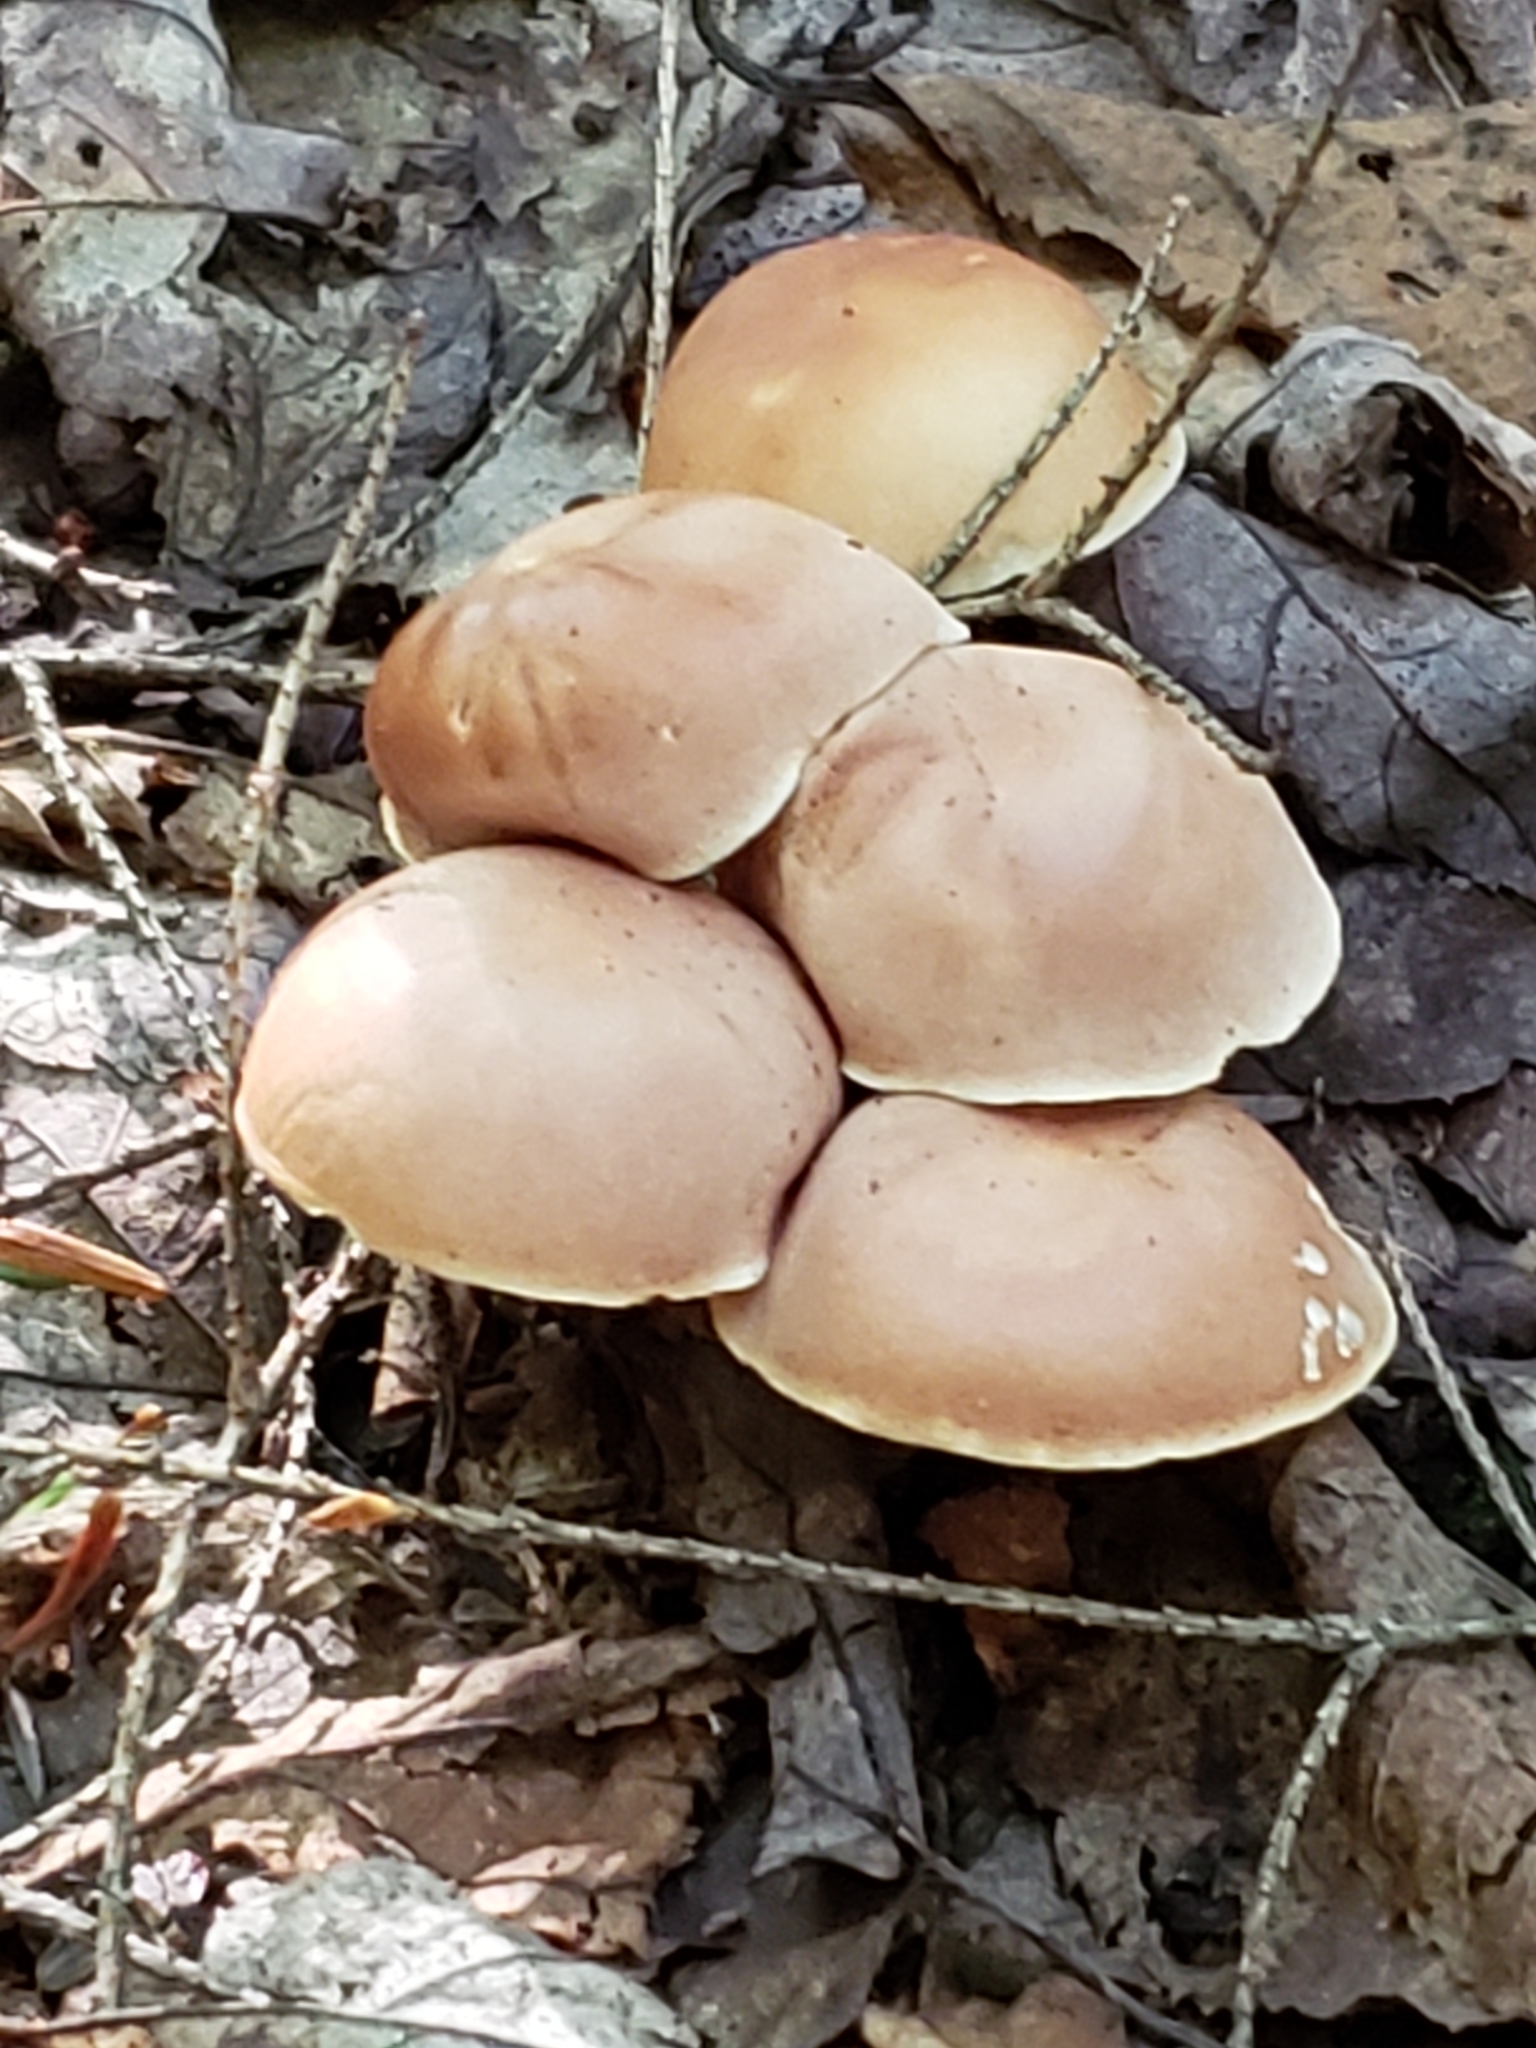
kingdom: Fungi
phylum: Basidiomycota
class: Agaricomycetes
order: Agaricales
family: Omphalotaceae
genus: Gymnopus
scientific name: Gymnopus dryophilus
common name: Penny top
